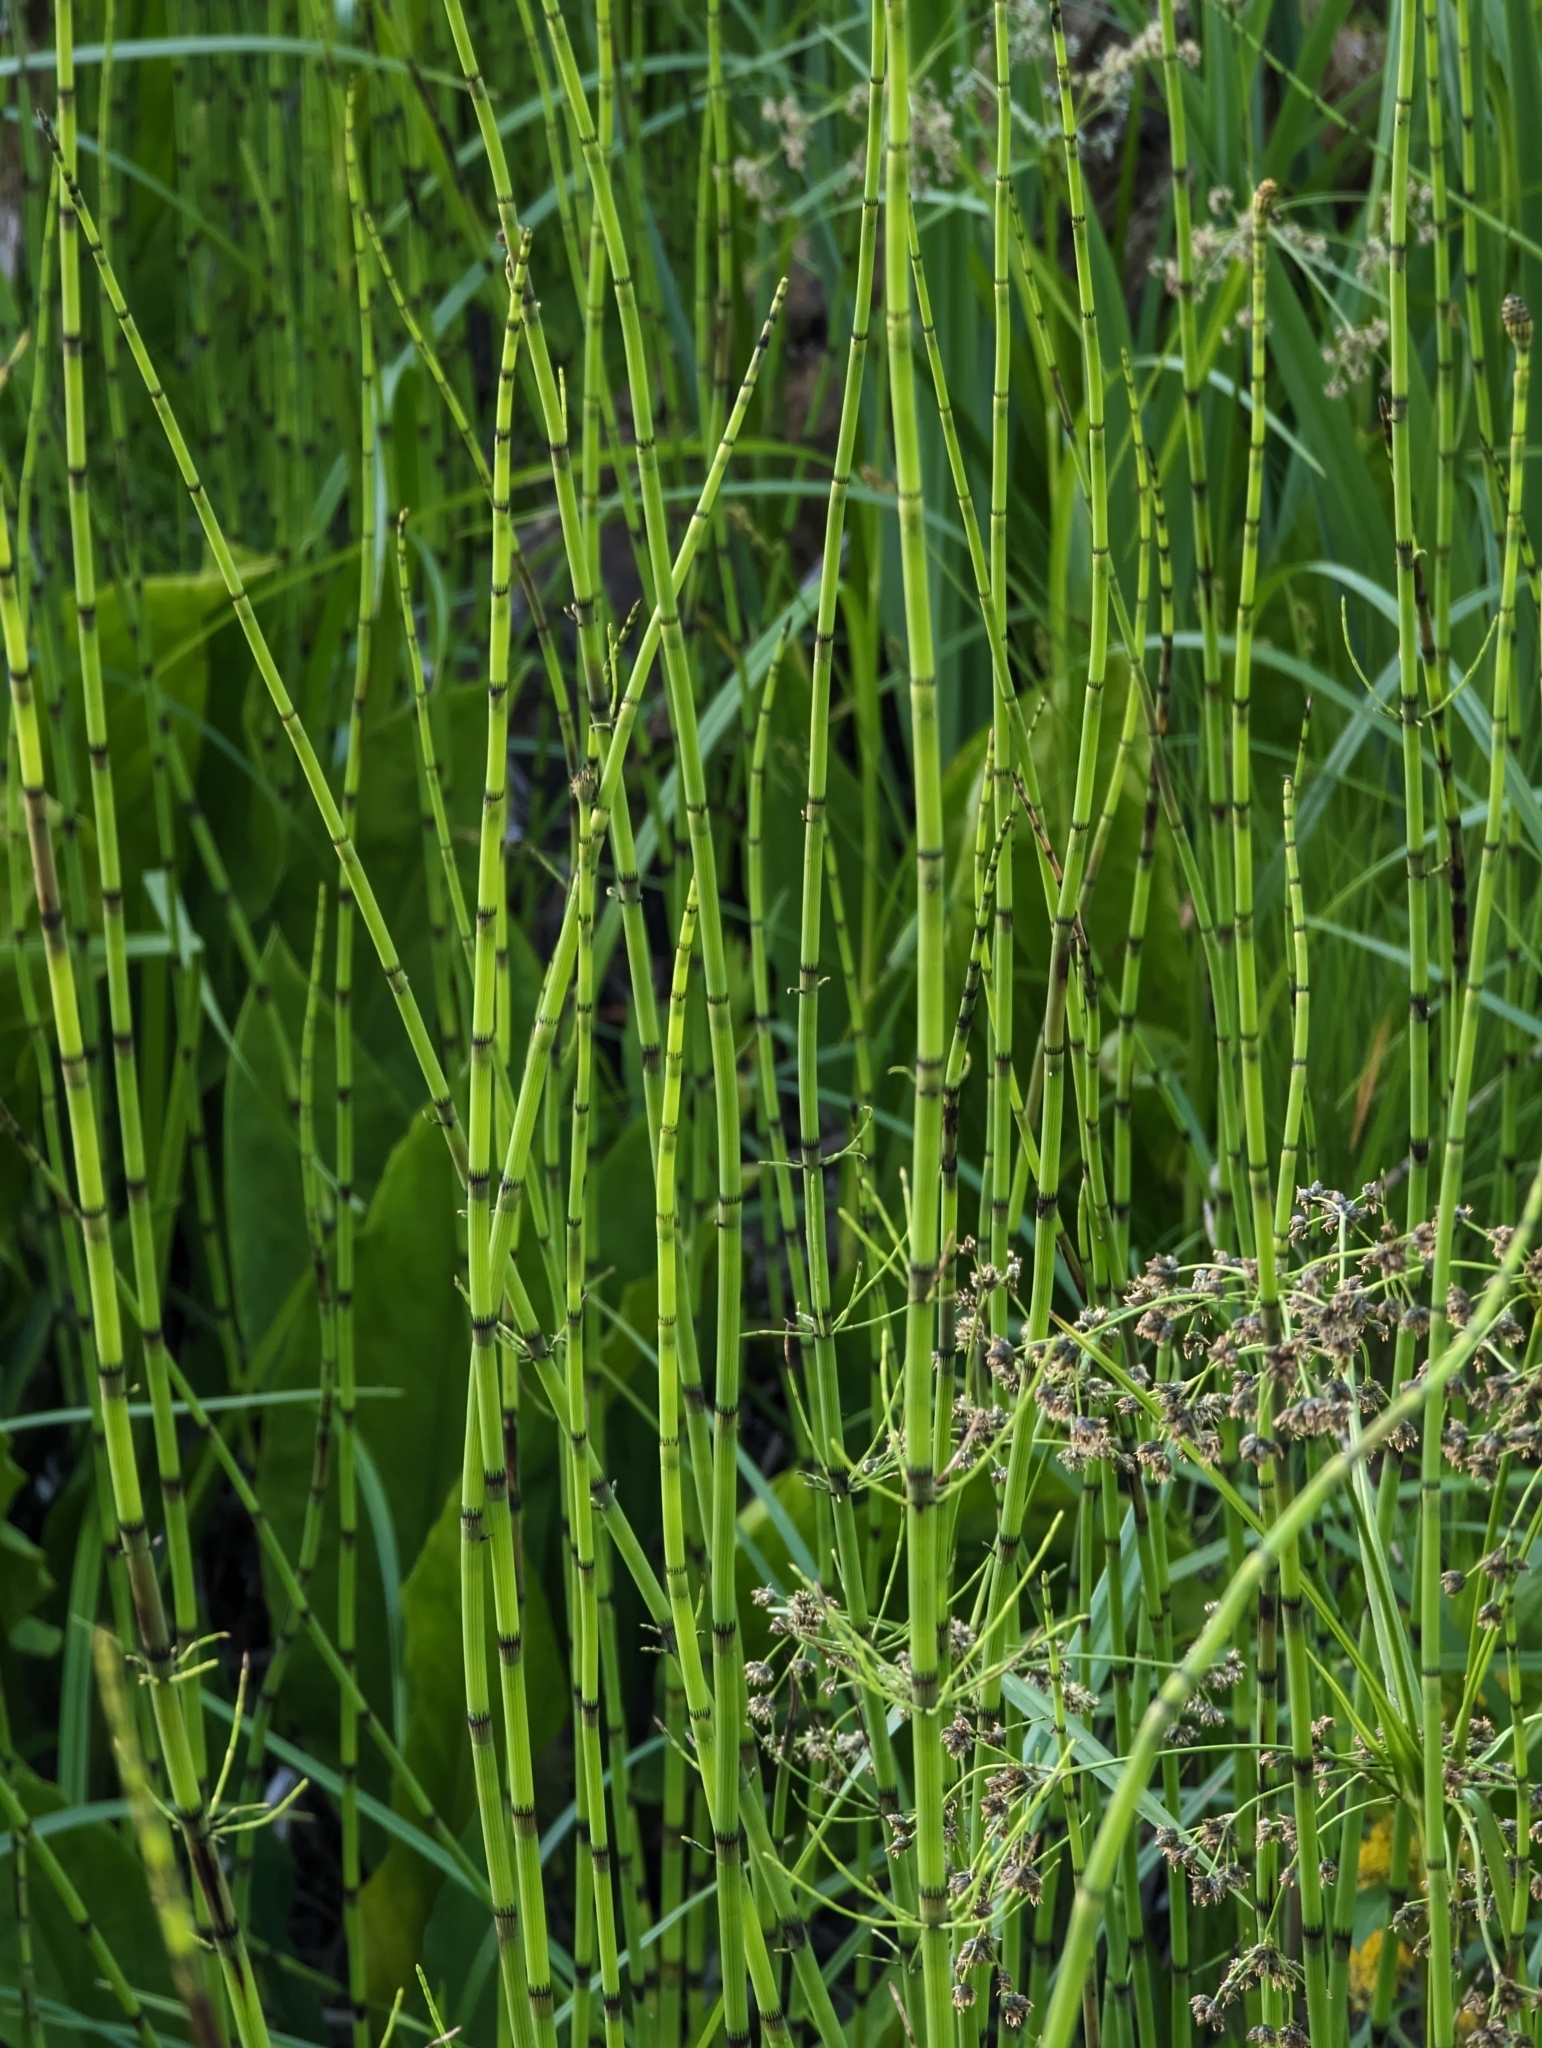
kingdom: Plantae
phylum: Tracheophyta
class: Polypodiopsida
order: Equisetales
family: Equisetaceae
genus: Equisetum
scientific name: Equisetum fluviatile
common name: Water horsetail
